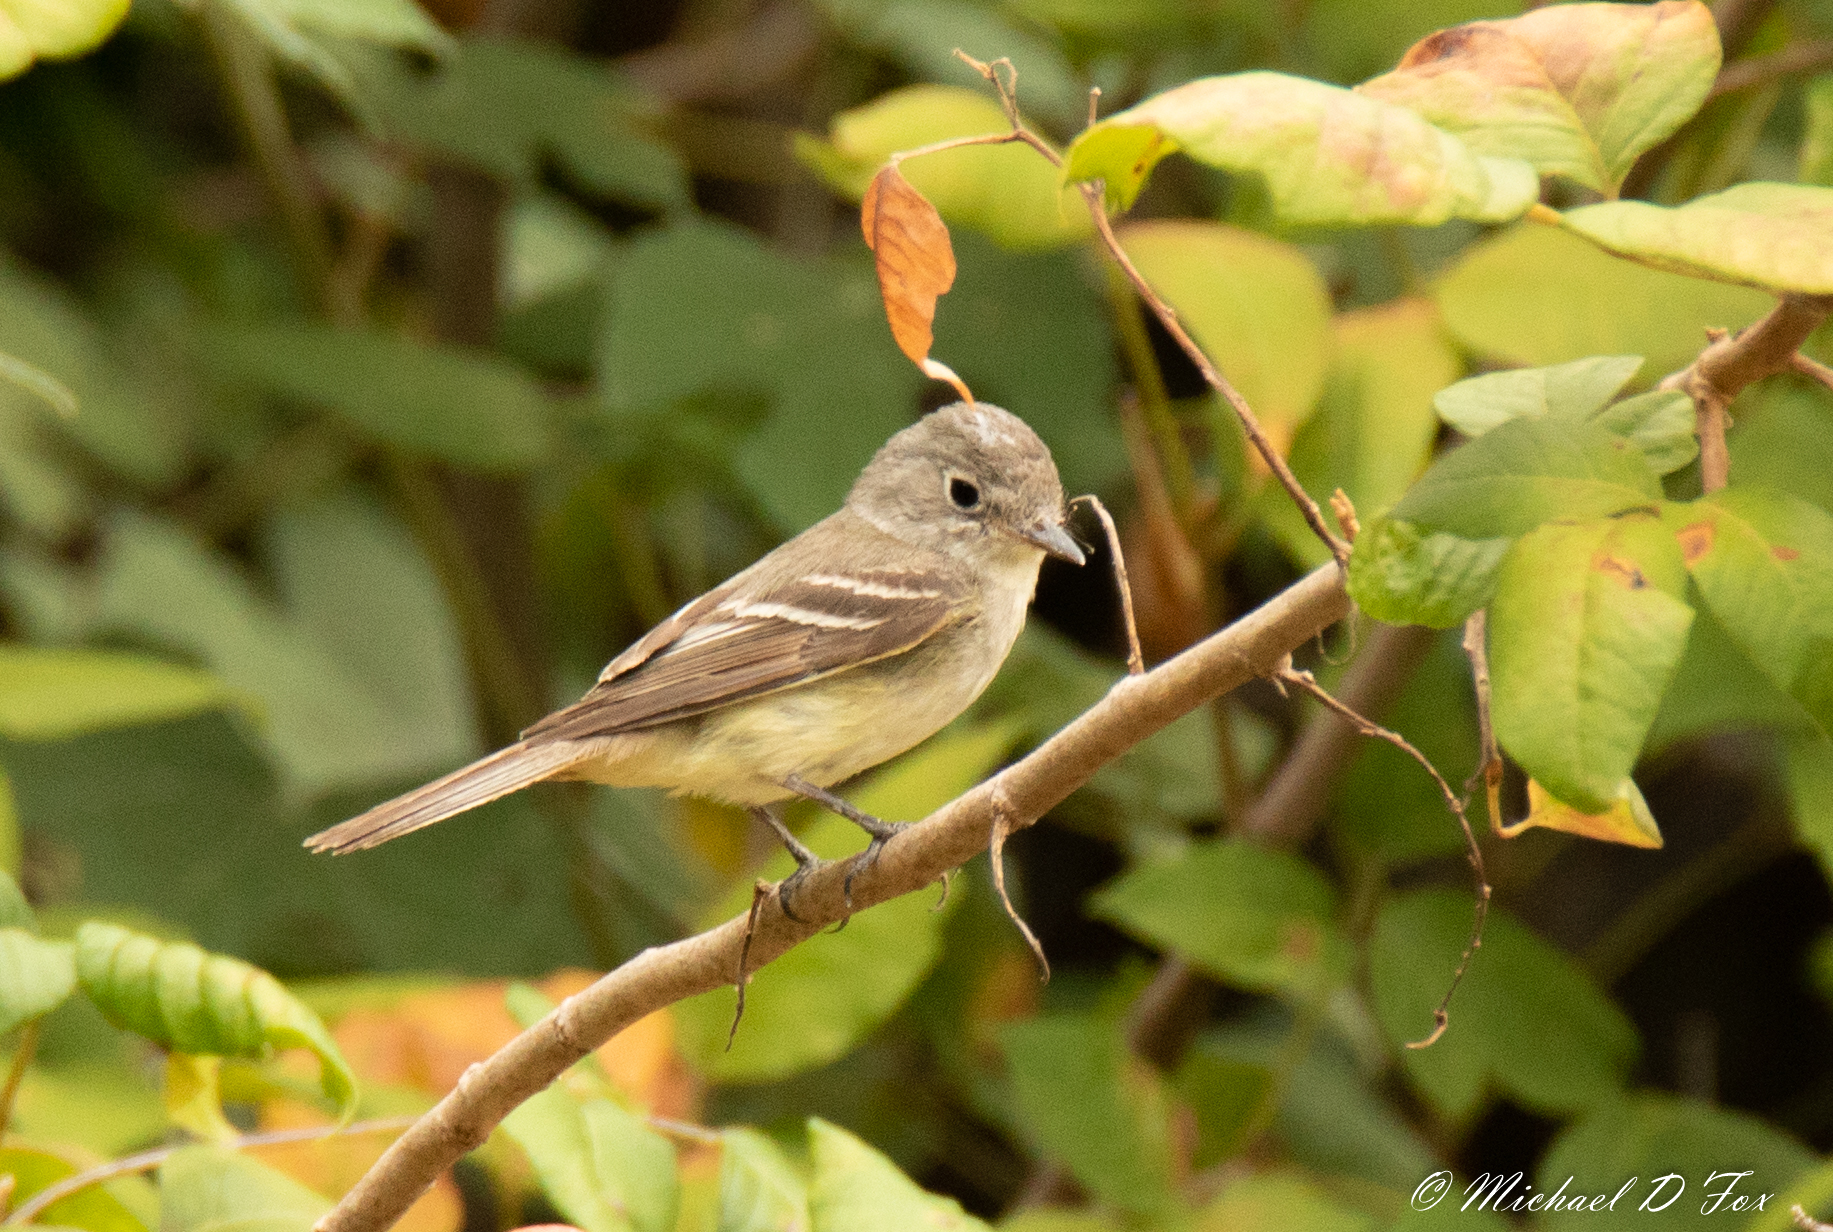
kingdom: Animalia
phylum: Chordata
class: Aves
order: Passeriformes
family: Tyrannidae
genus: Empidonax
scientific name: Empidonax
